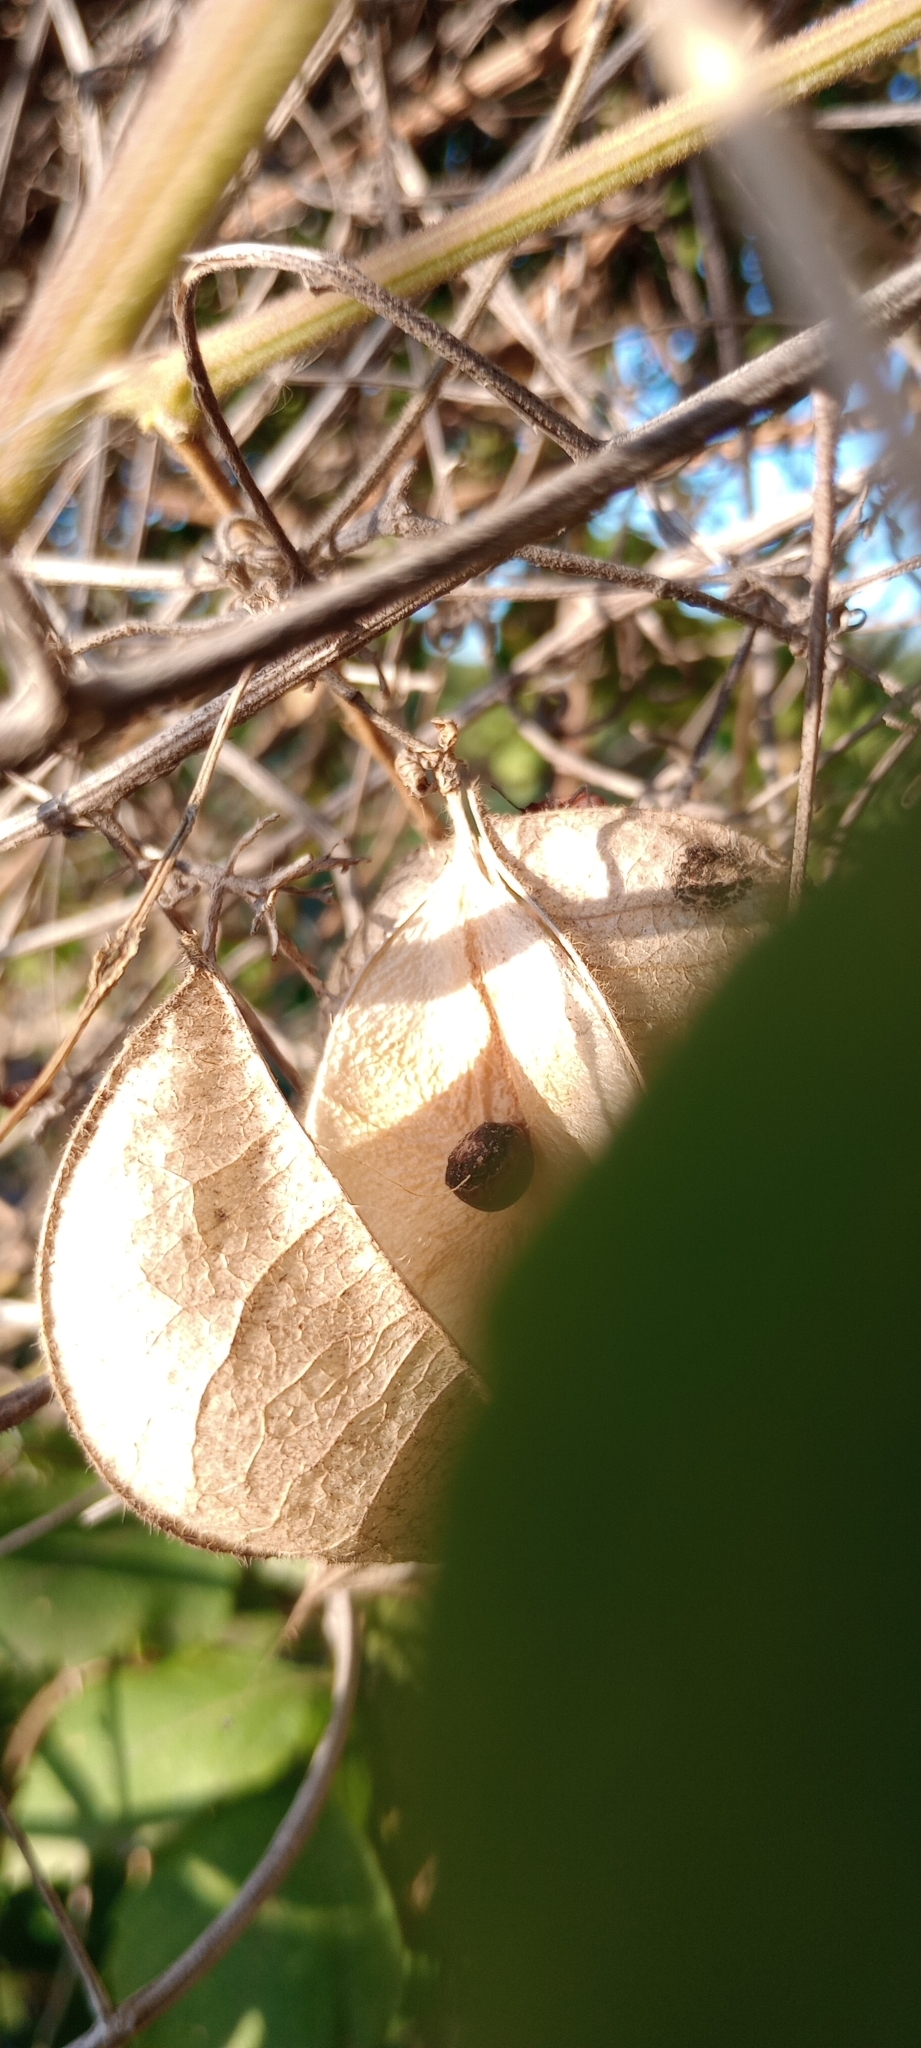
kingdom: Plantae
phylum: Tracheophyta
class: Magnoliopsida
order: Sapindales
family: Sapindaceae
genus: Cardiospermum
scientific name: Cardiospermum grandiflorum
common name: Balloon vine
